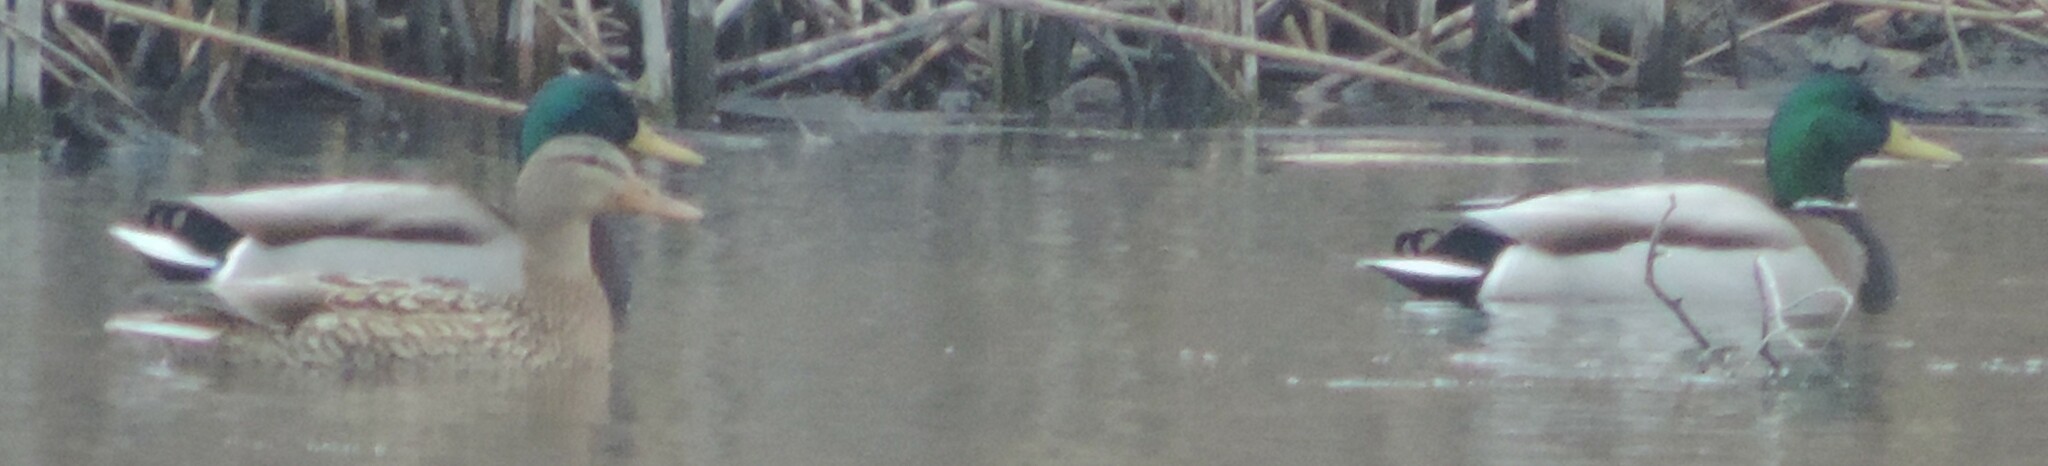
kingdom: Animalia
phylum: Chordata
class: Aves
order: Anseriformes
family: Anatidae
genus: Anas
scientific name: Anas platyrhynchos
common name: Mallard
